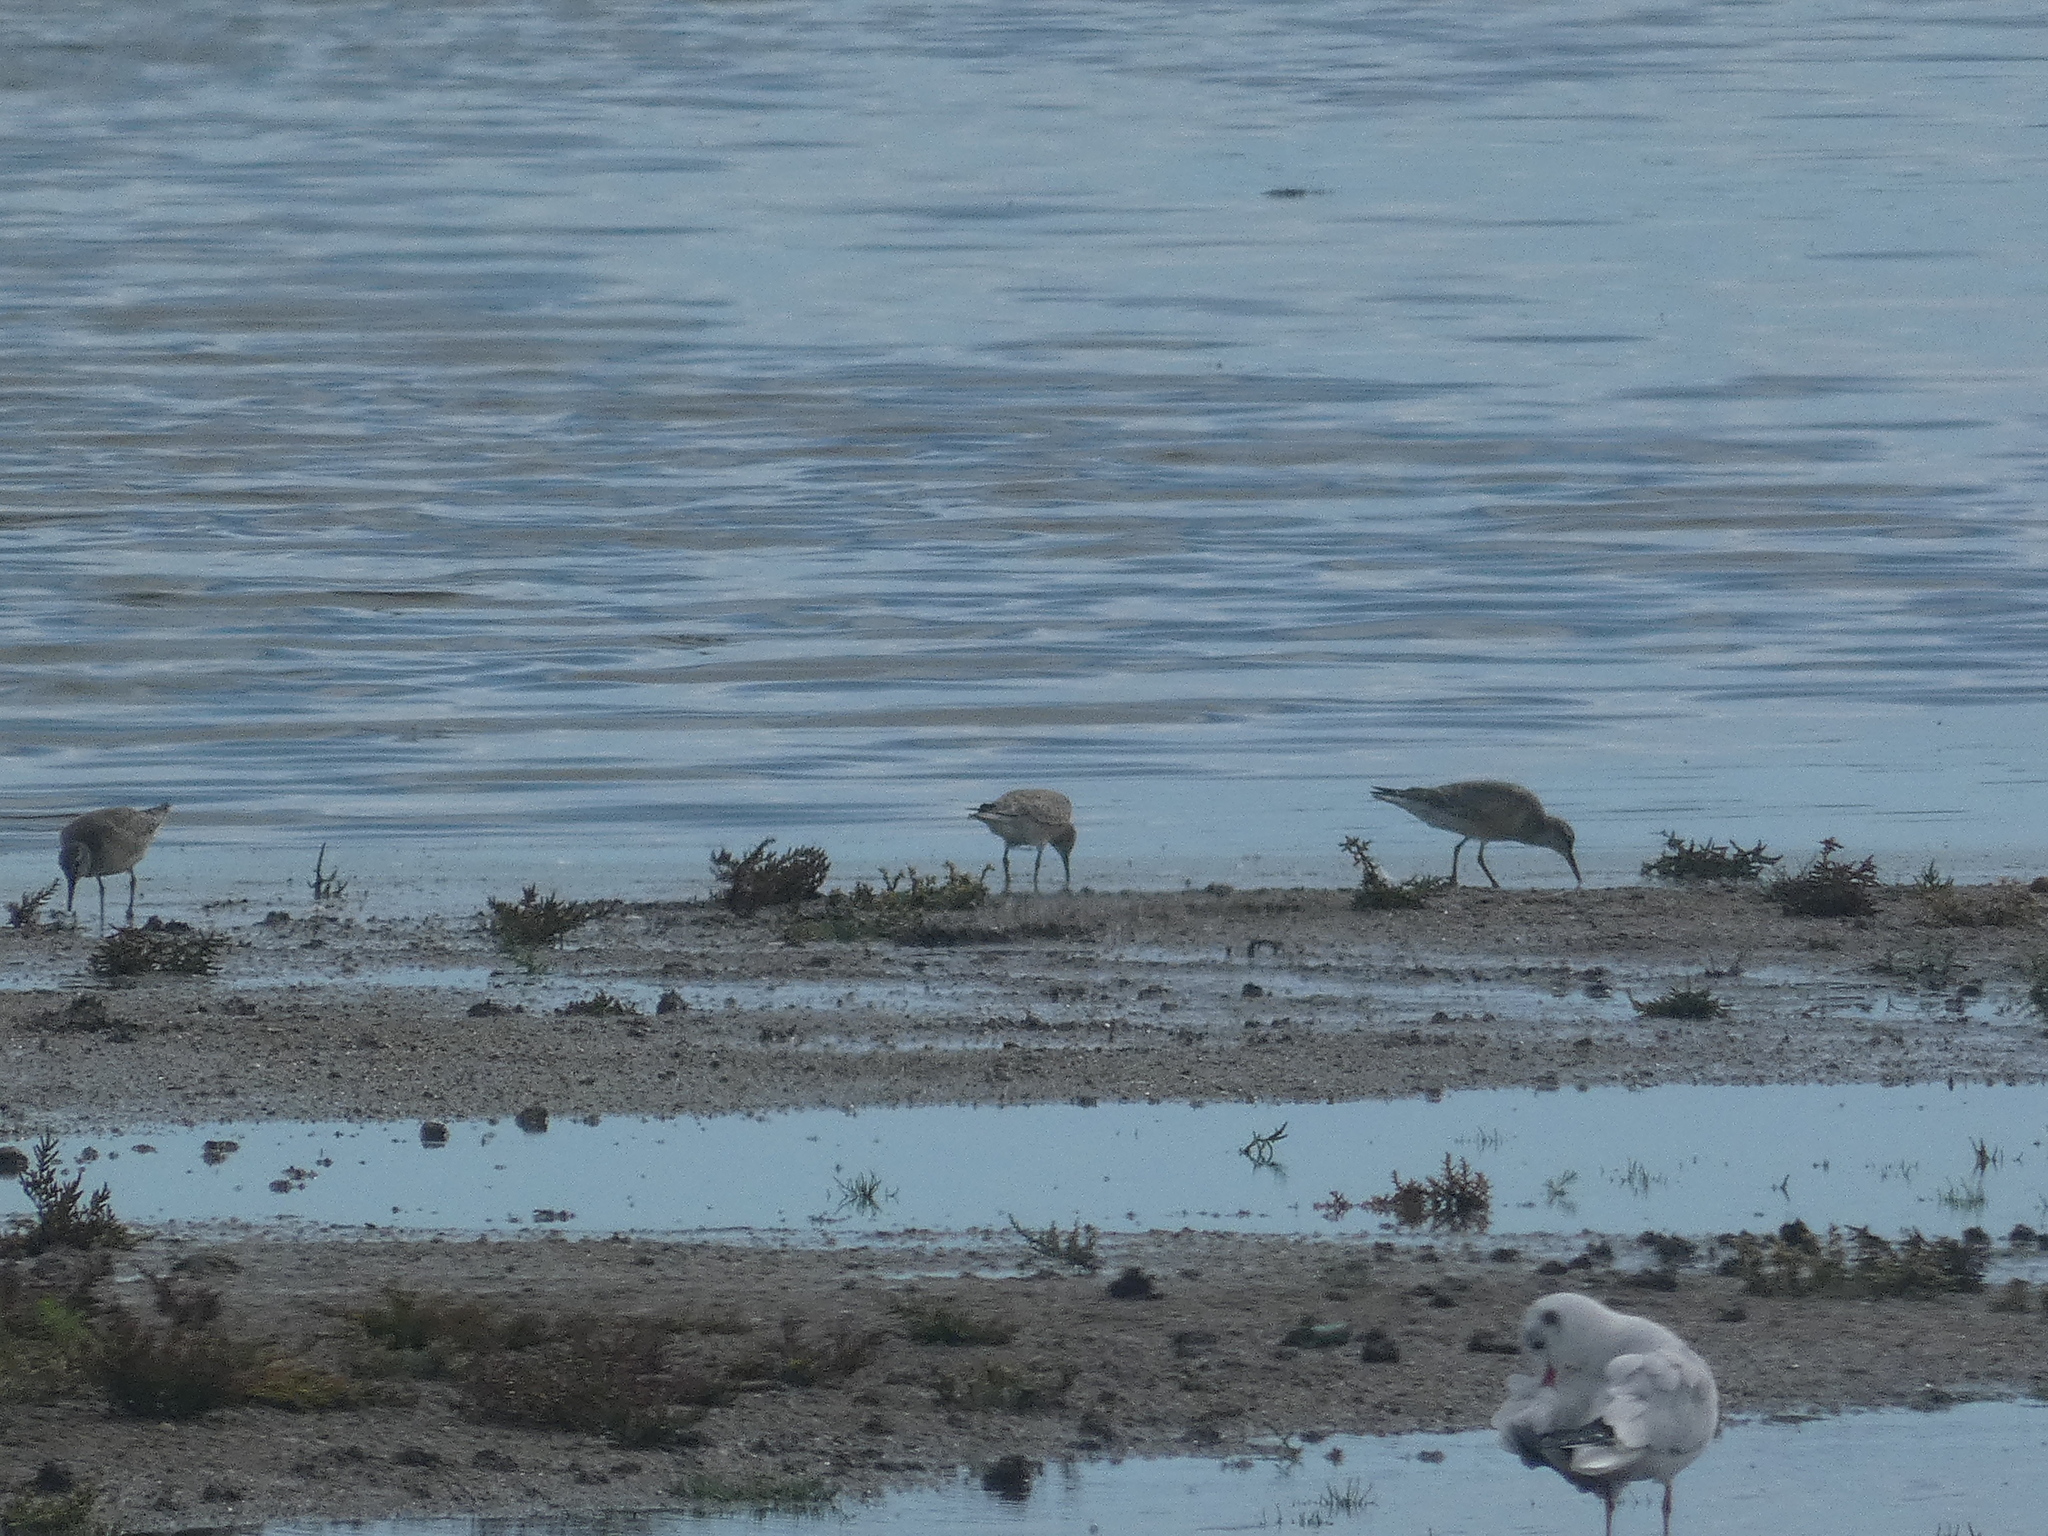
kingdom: Animalia
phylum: Chordata
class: Aves
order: Charadriiformes
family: Scolopacidae
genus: Calidris
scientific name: Calidris canutus
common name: Red knot
